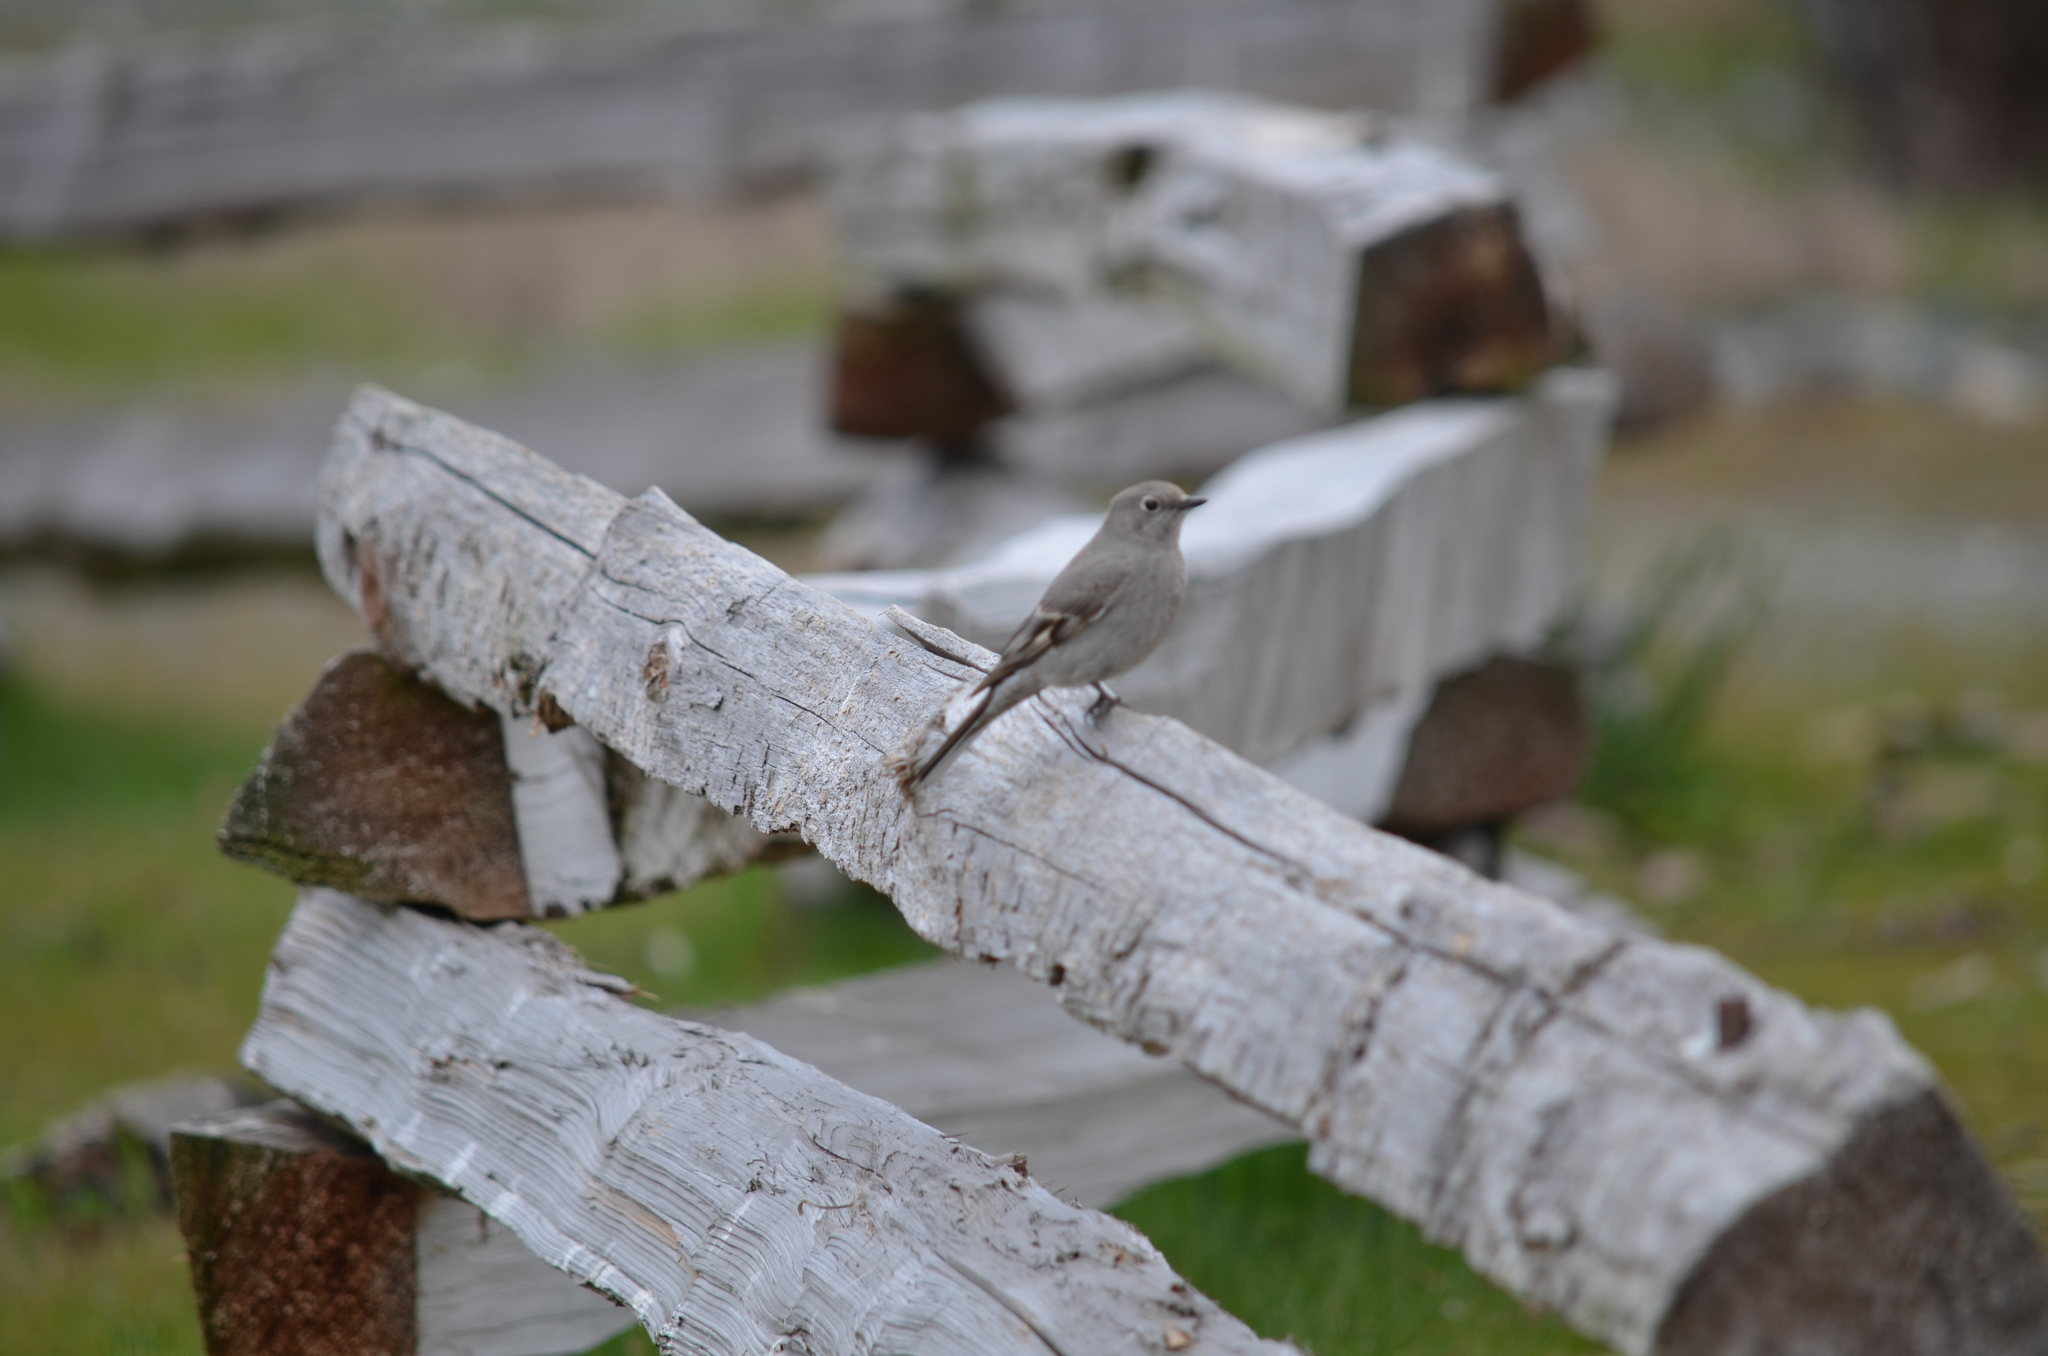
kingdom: Animalia
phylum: Chordata
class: Aves
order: Passeriformes
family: Turdidae
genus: Myadestes
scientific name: Myadestes townsendi
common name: Townsend's solitaire
